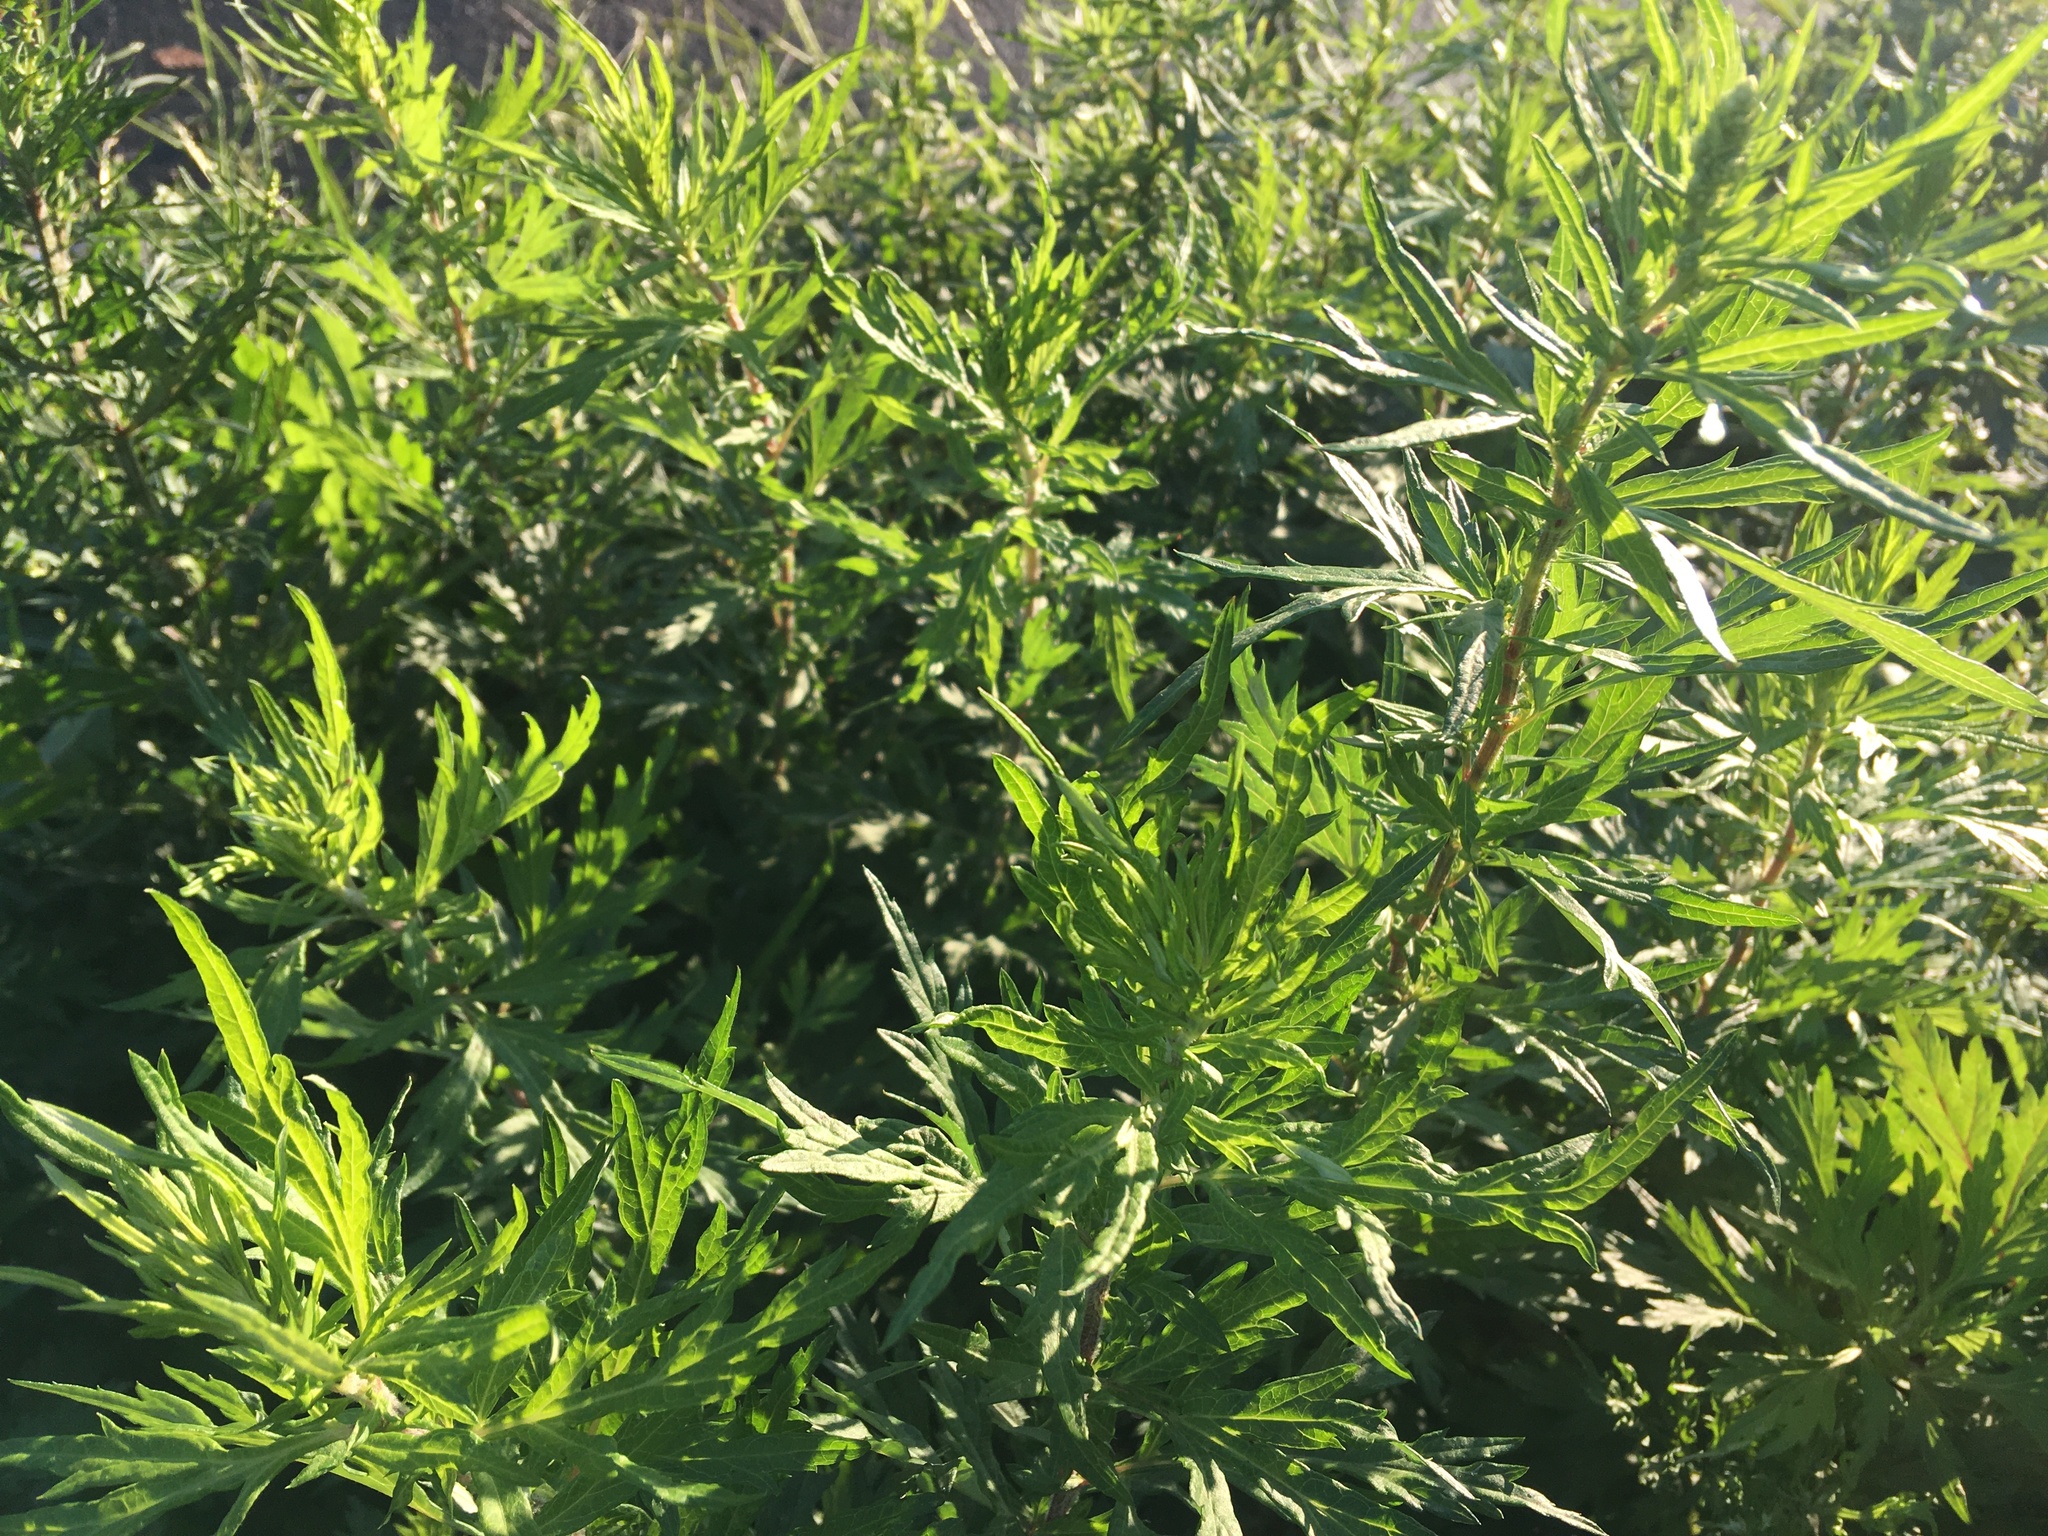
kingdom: Plantae
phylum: Tracheophyta
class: Magnoliopsida
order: Asterales
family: Asteraceae
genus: Artemisia
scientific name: Artemisia vulgaris
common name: Mugwort
